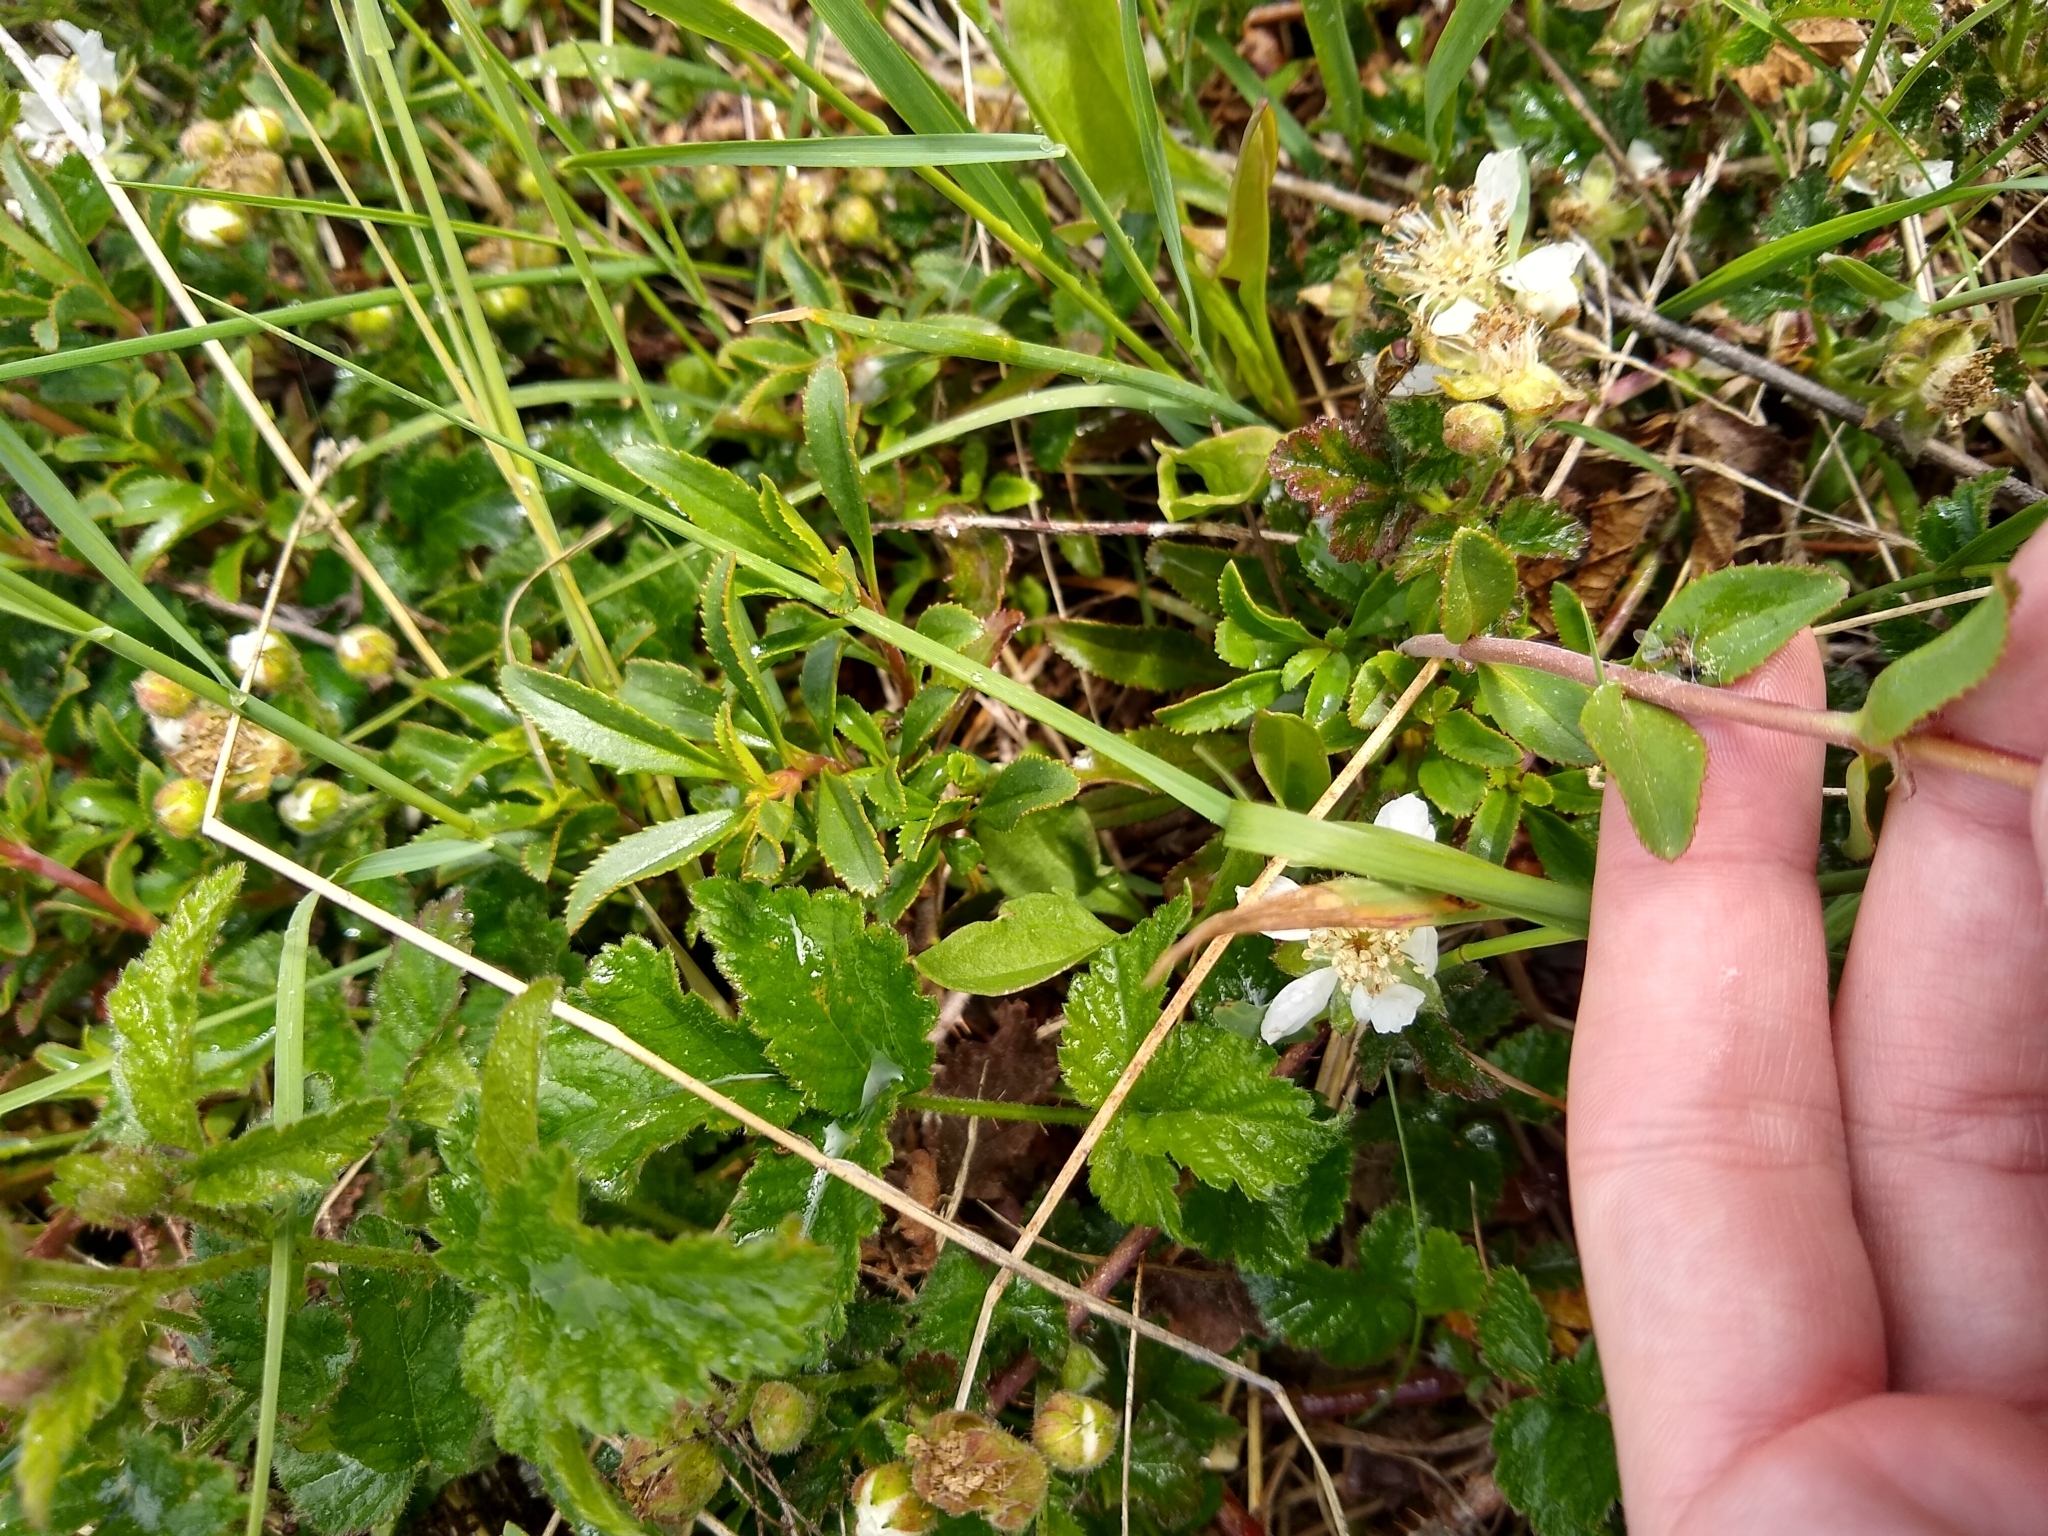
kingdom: Plantae
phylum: Tracheophyta
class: Magnoliopsida
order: Lamiales
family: Plantaginaceae
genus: Penstemon
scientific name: Penstemon
